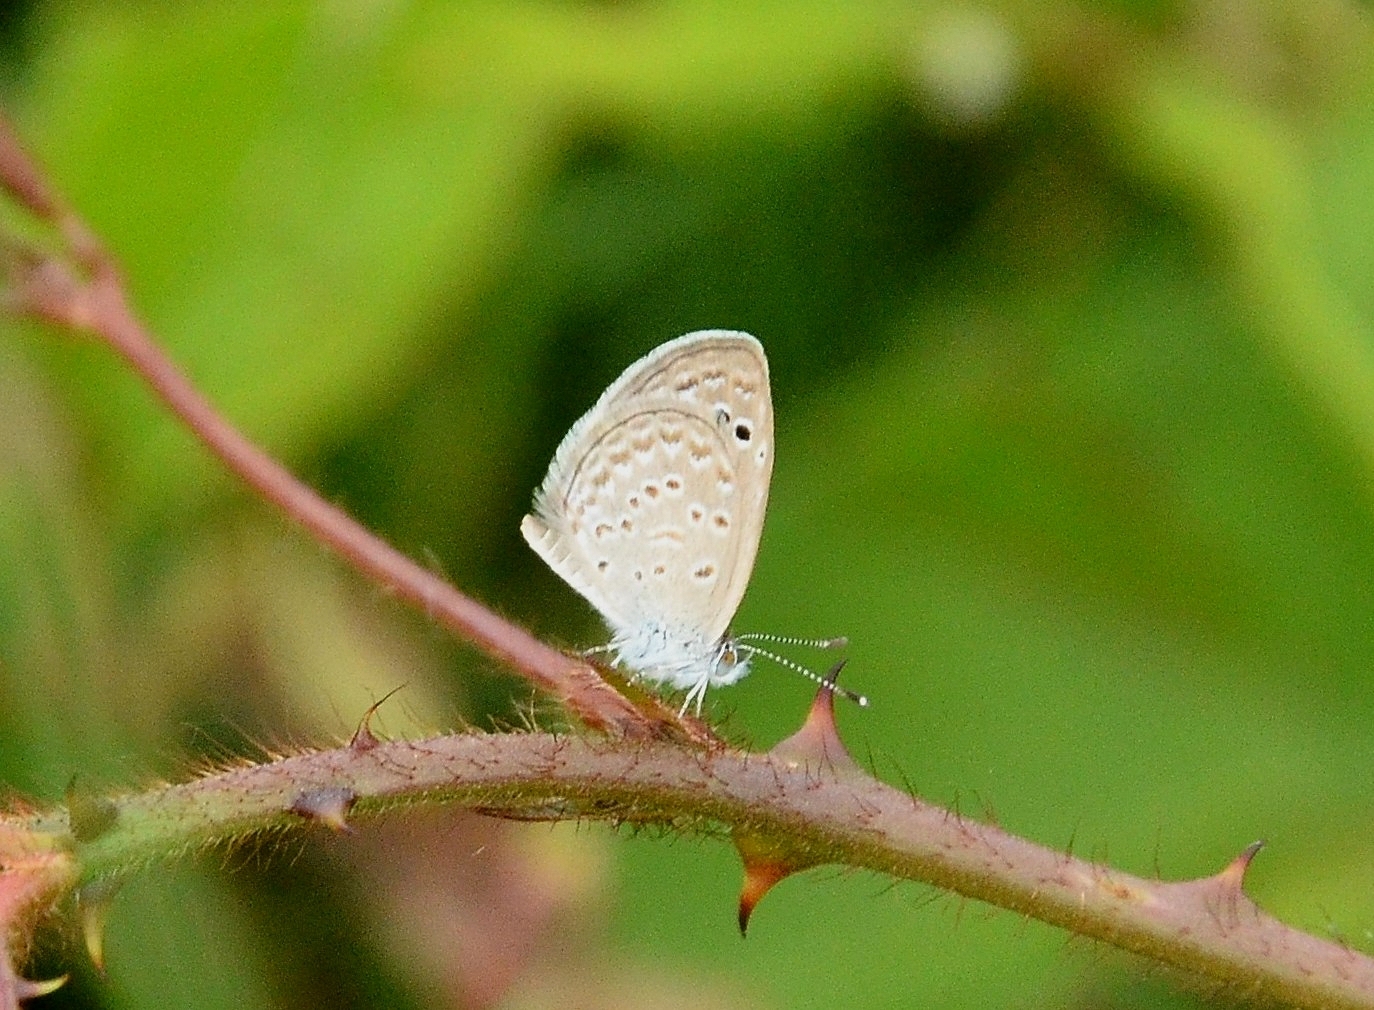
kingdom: Animalia
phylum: Arthropoda
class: Insecta
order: Lepidoptera
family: Lycaenidae
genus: Zizina
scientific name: Zizina otis
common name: Lesser grass blue
